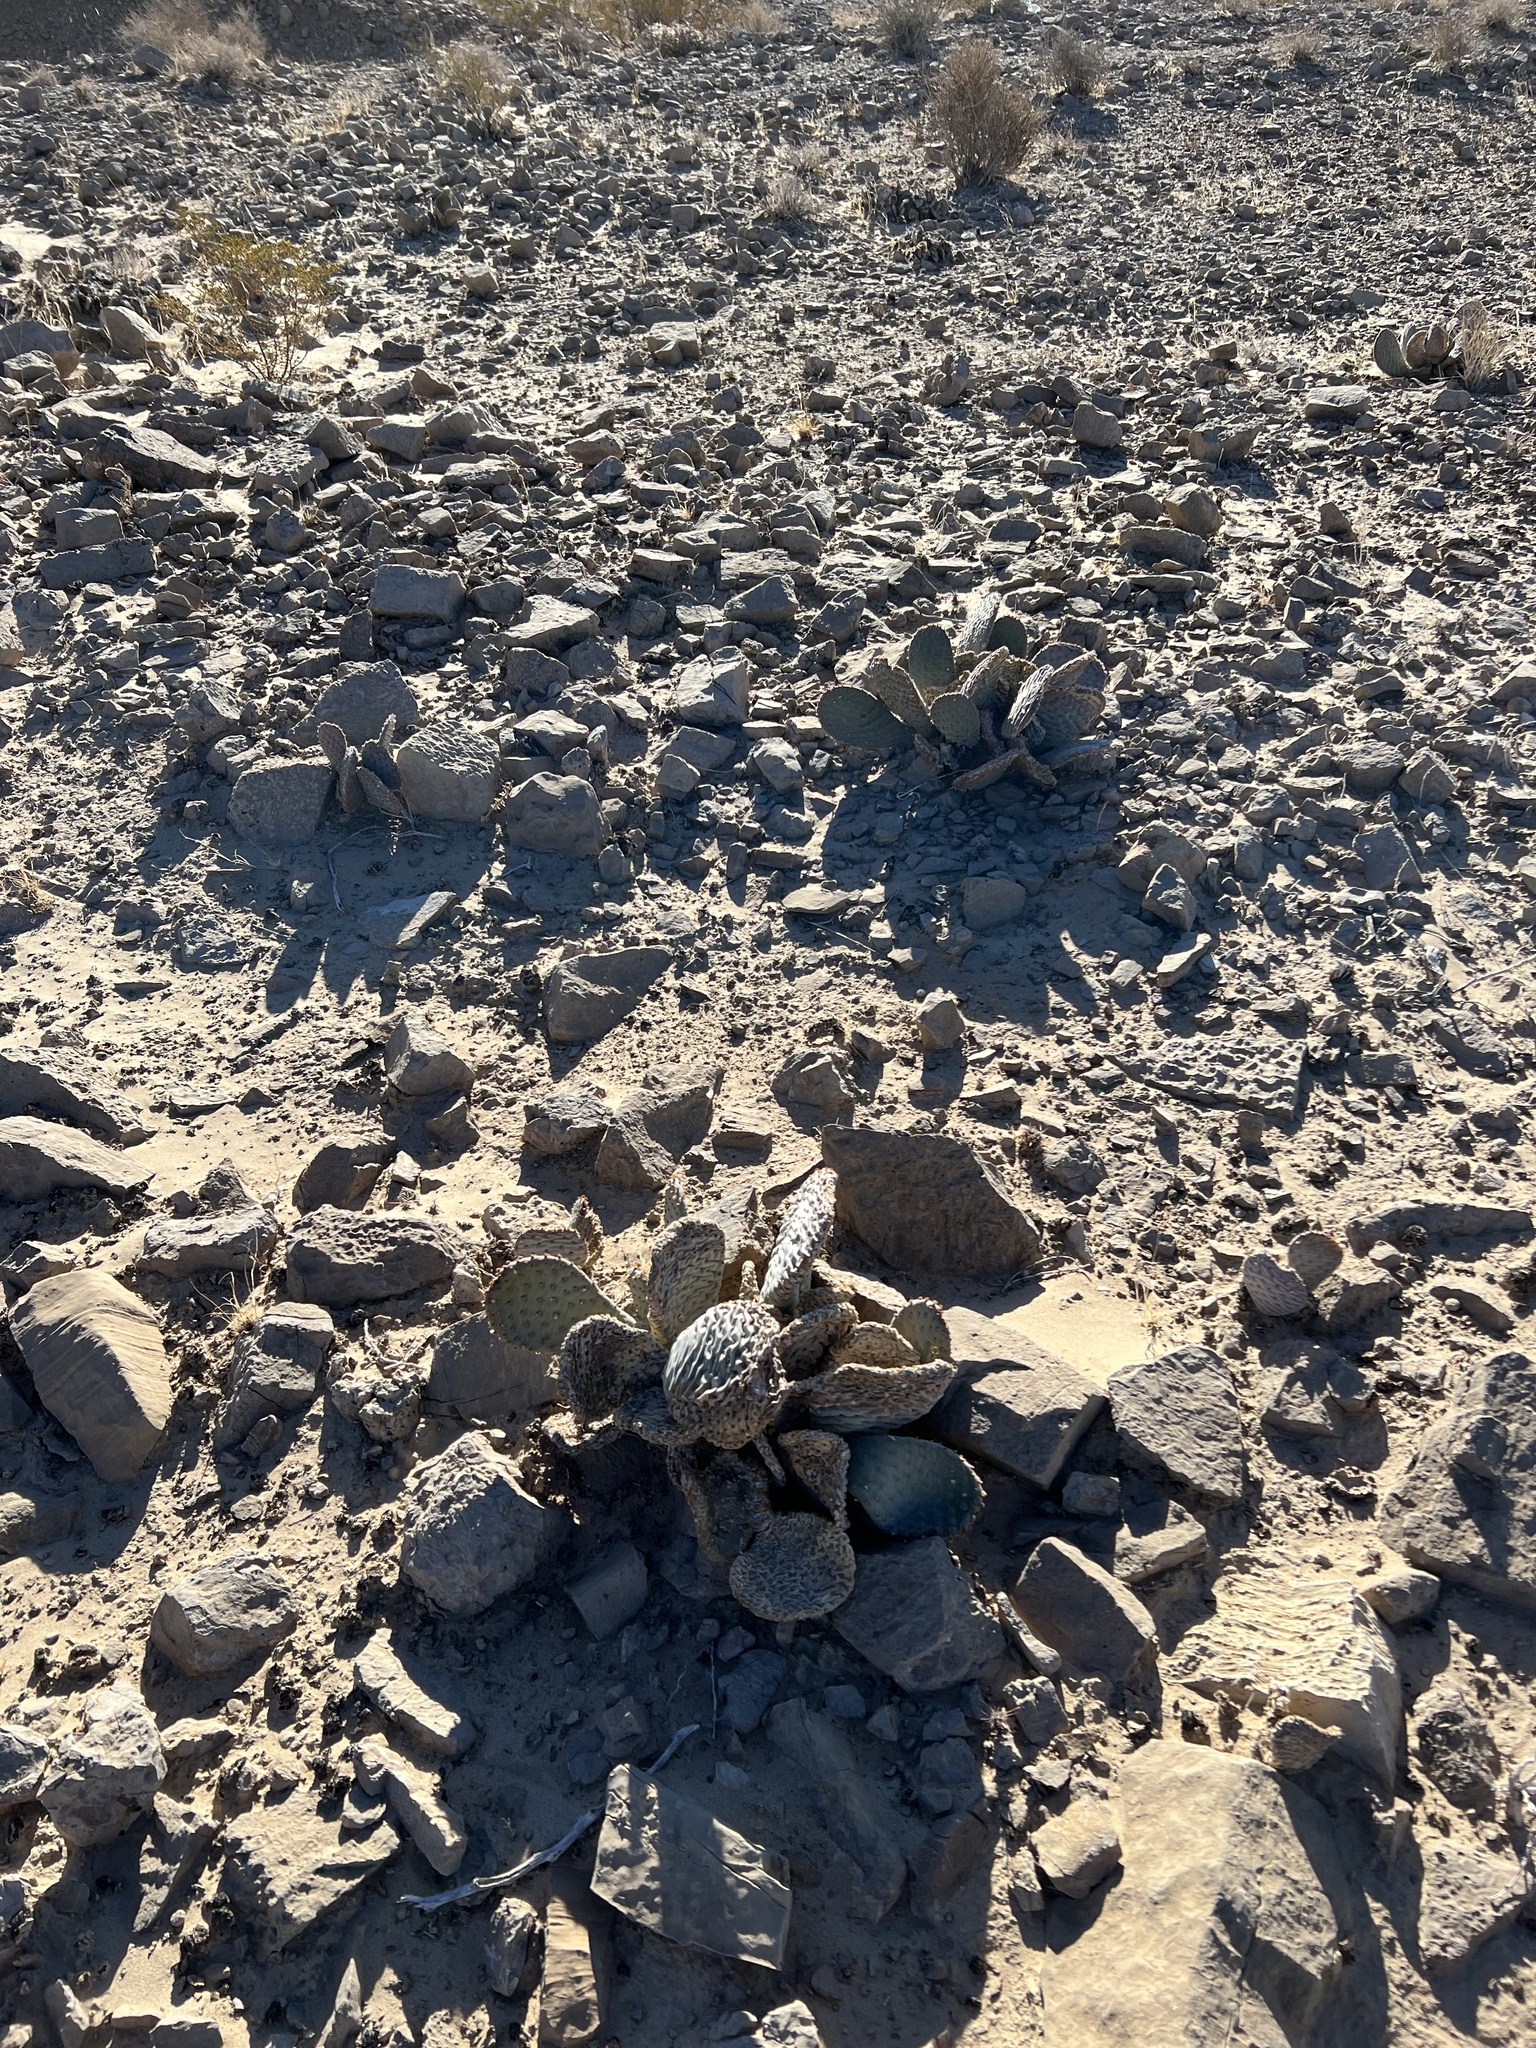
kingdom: Plantae
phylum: Tracheophyta
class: Magnoliopsida
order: Caryophyllales
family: Cactaceae
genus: Opuntia
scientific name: Opuntia basilaris
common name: Beavertail prickly-pear
